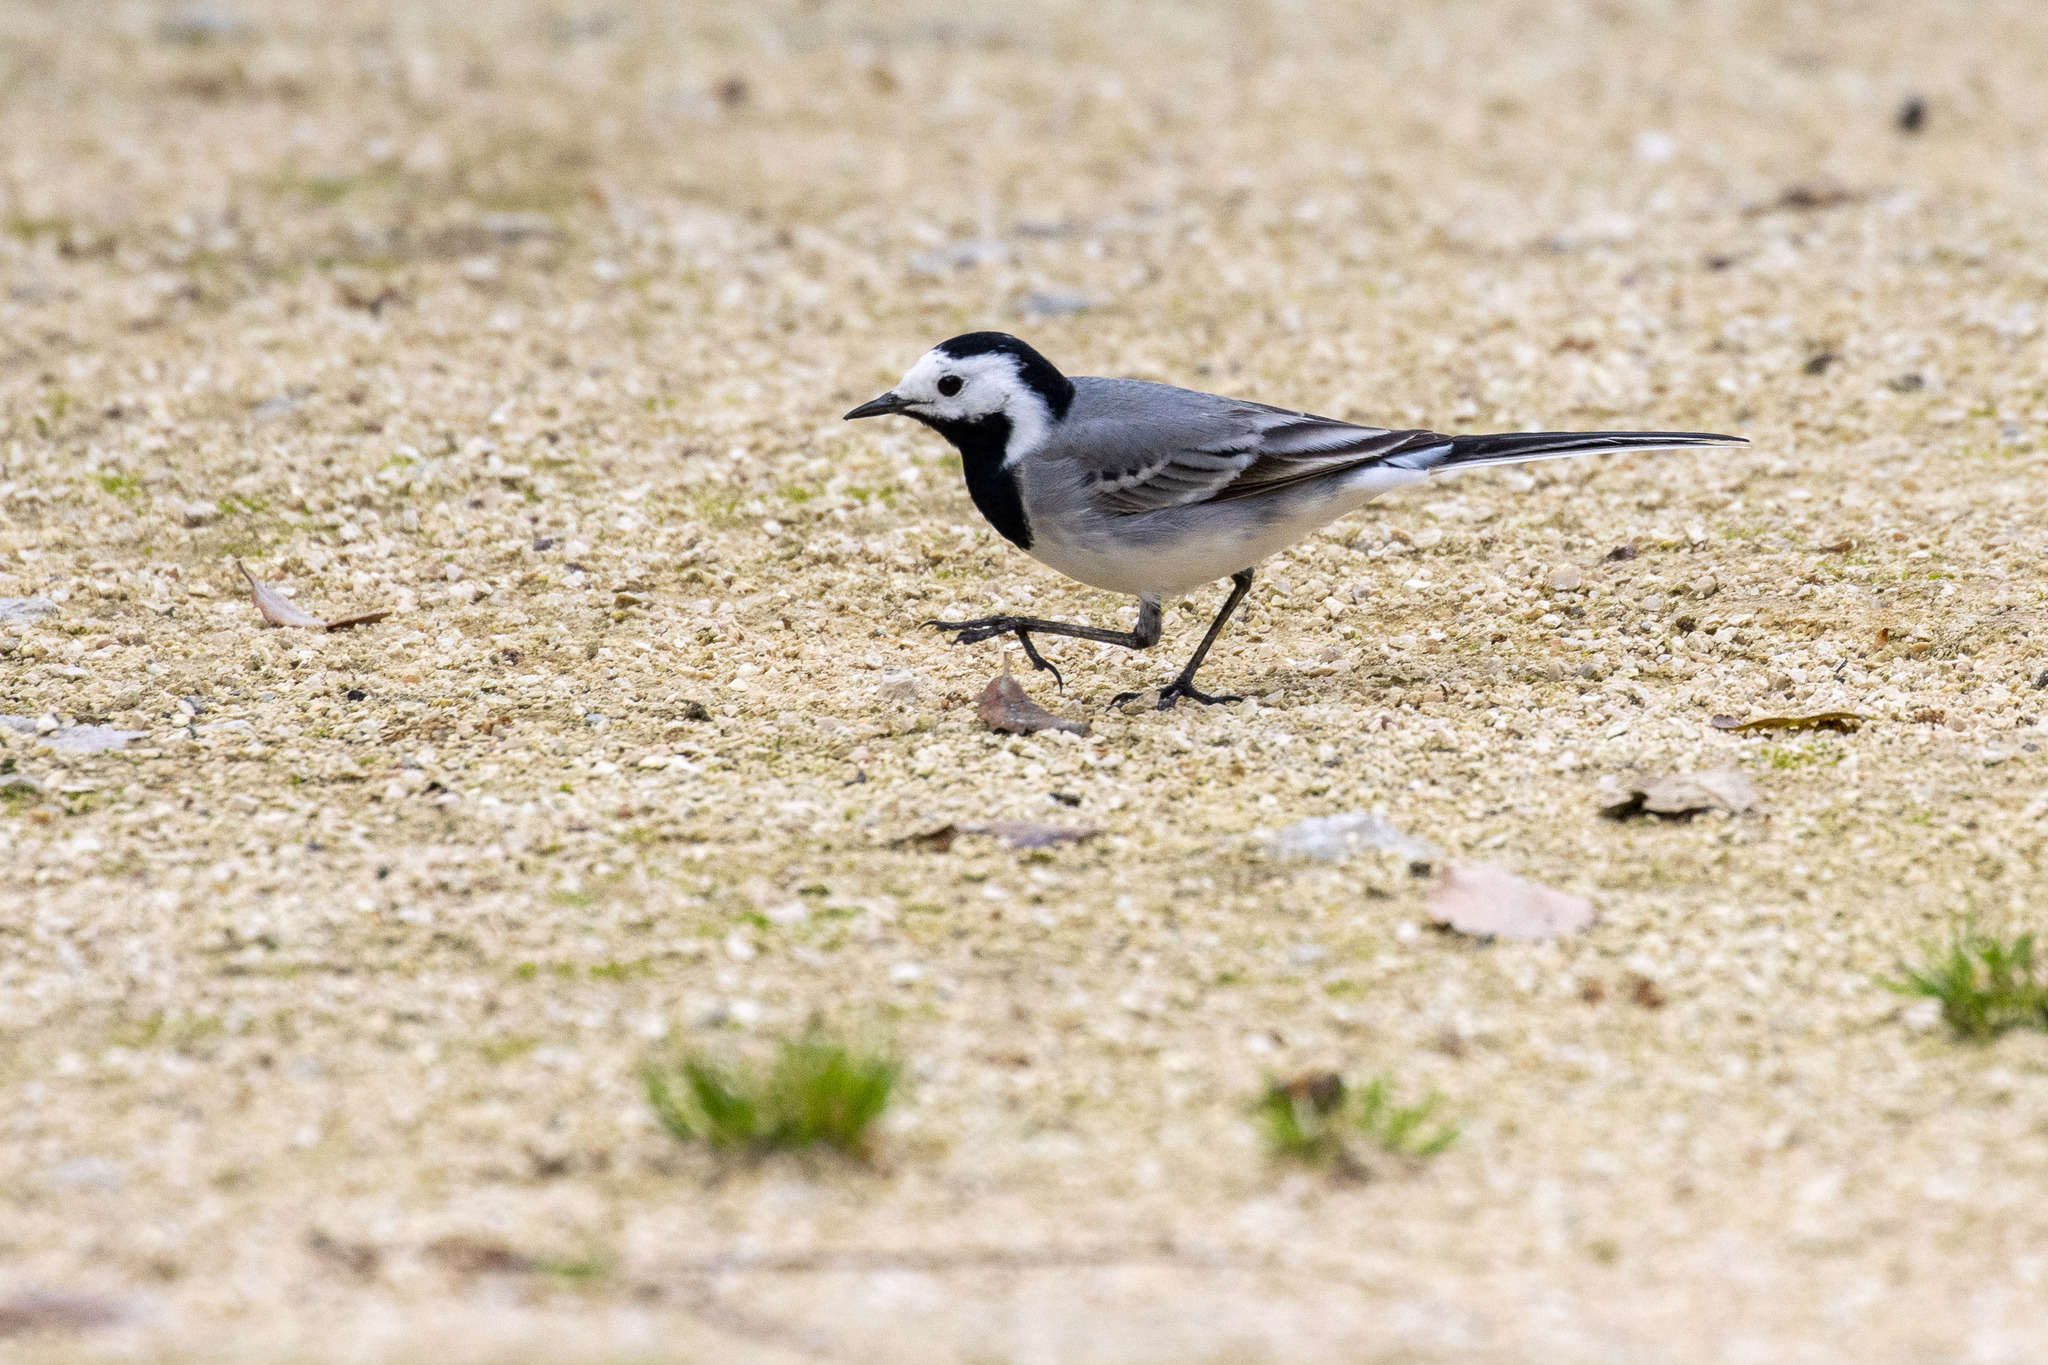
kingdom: Animalia
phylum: Chordata
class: Aves
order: Passeriformes
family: Motacillidae
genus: Motacilla
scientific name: Motacilla alba
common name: White wagtail
